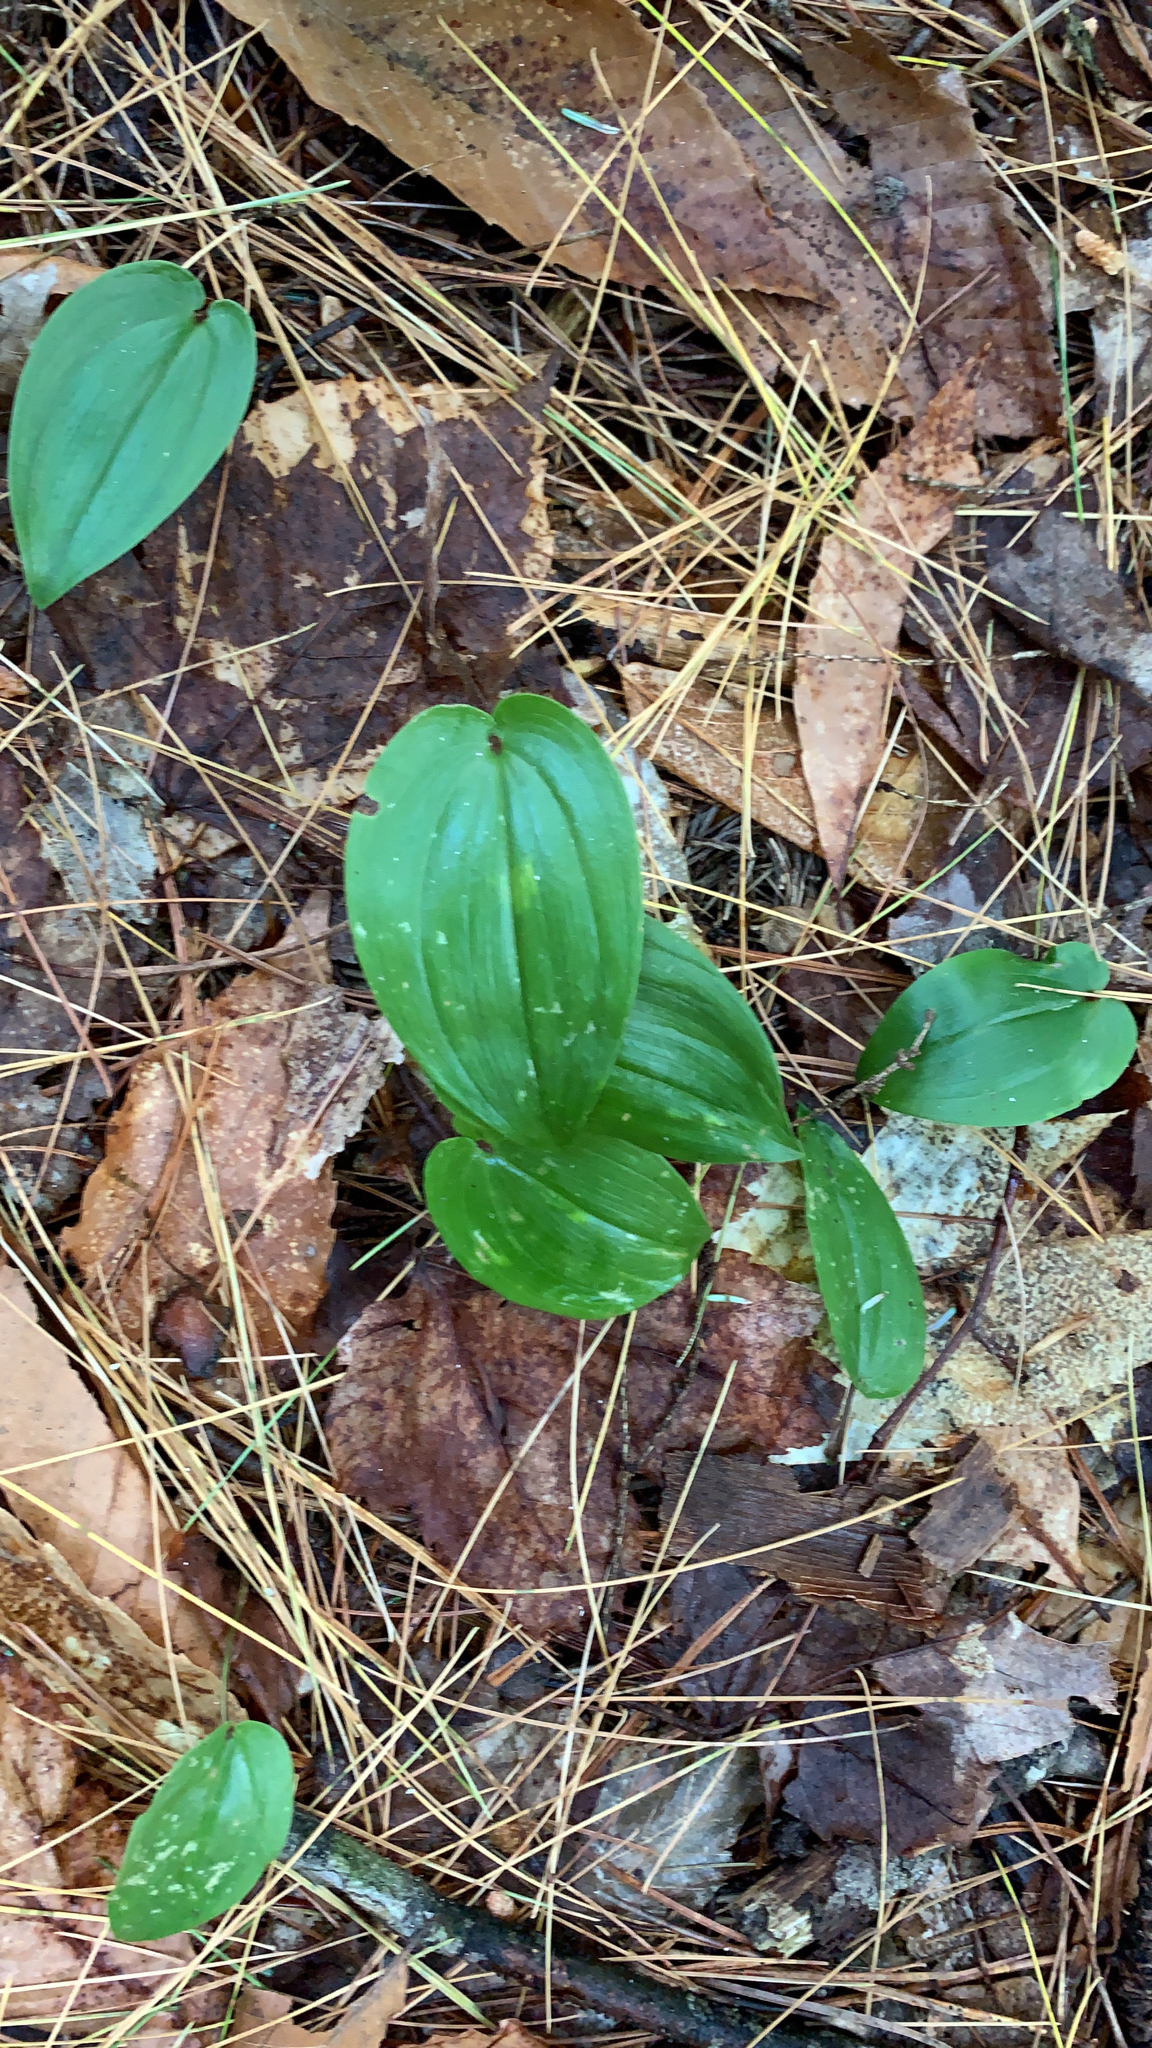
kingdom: Plantae
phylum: Tracheophyta
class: Liliopsida
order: Asparagales
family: Orchidaceae
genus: Cypripedium
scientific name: Cypripedium acaule
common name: Pink lady's-slipper
